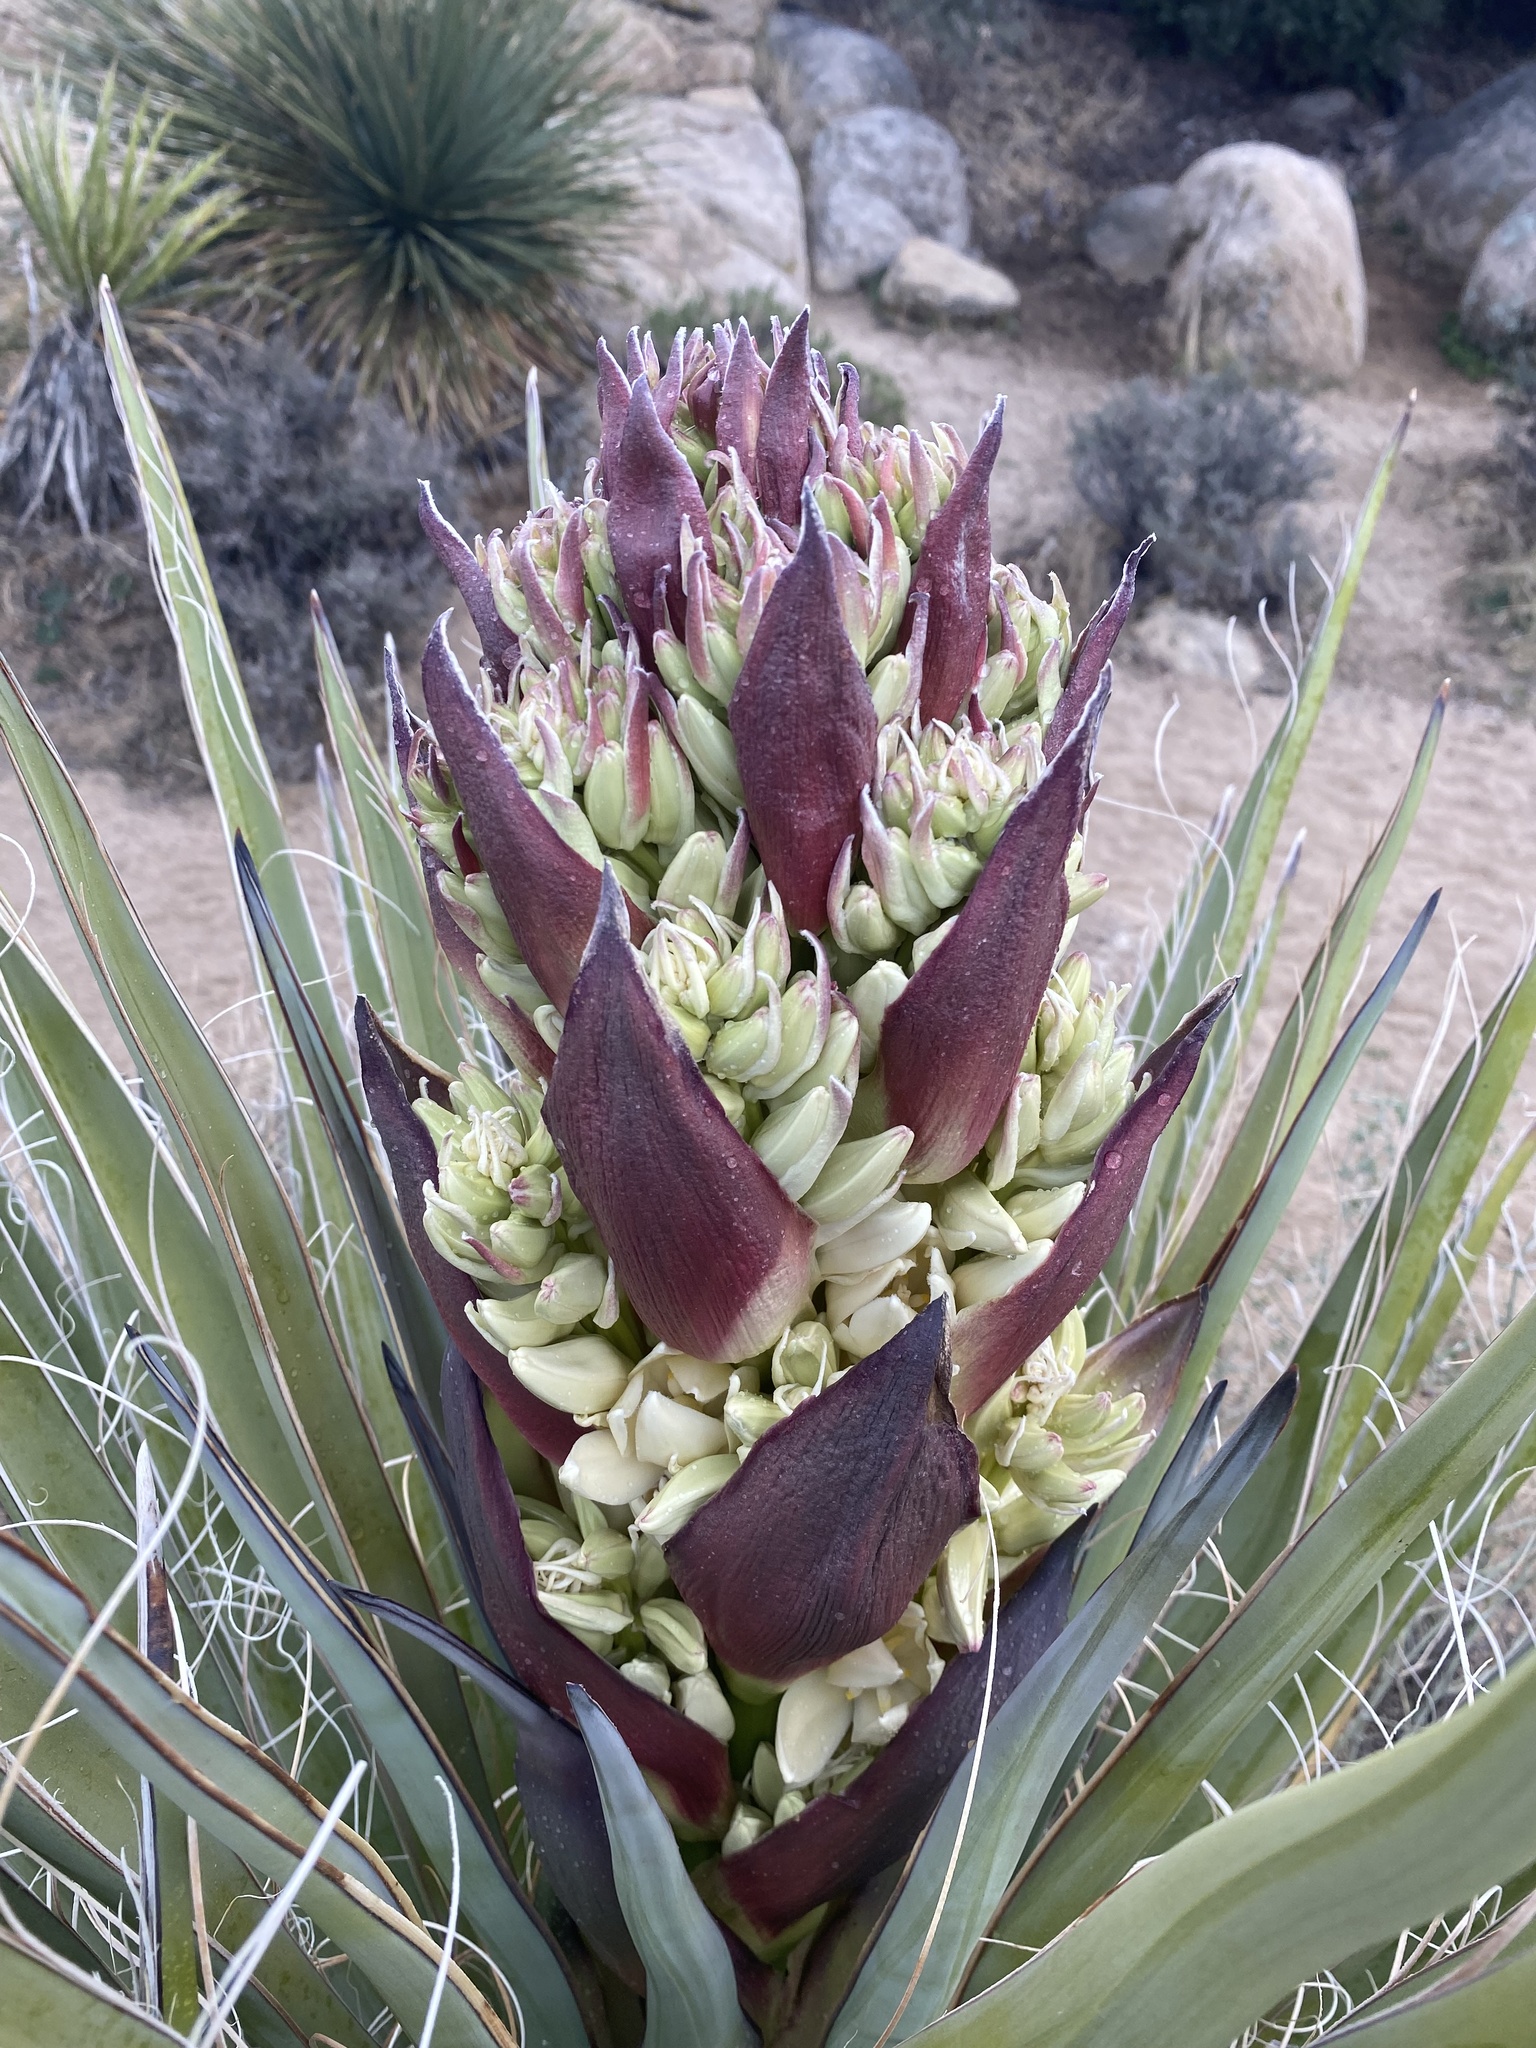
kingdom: Plantae
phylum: Tracheophyta
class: Liliopsida
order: Asparagales
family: Asparagaceae
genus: Yucca
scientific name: Yucca schidigera
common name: Mojave yucca
